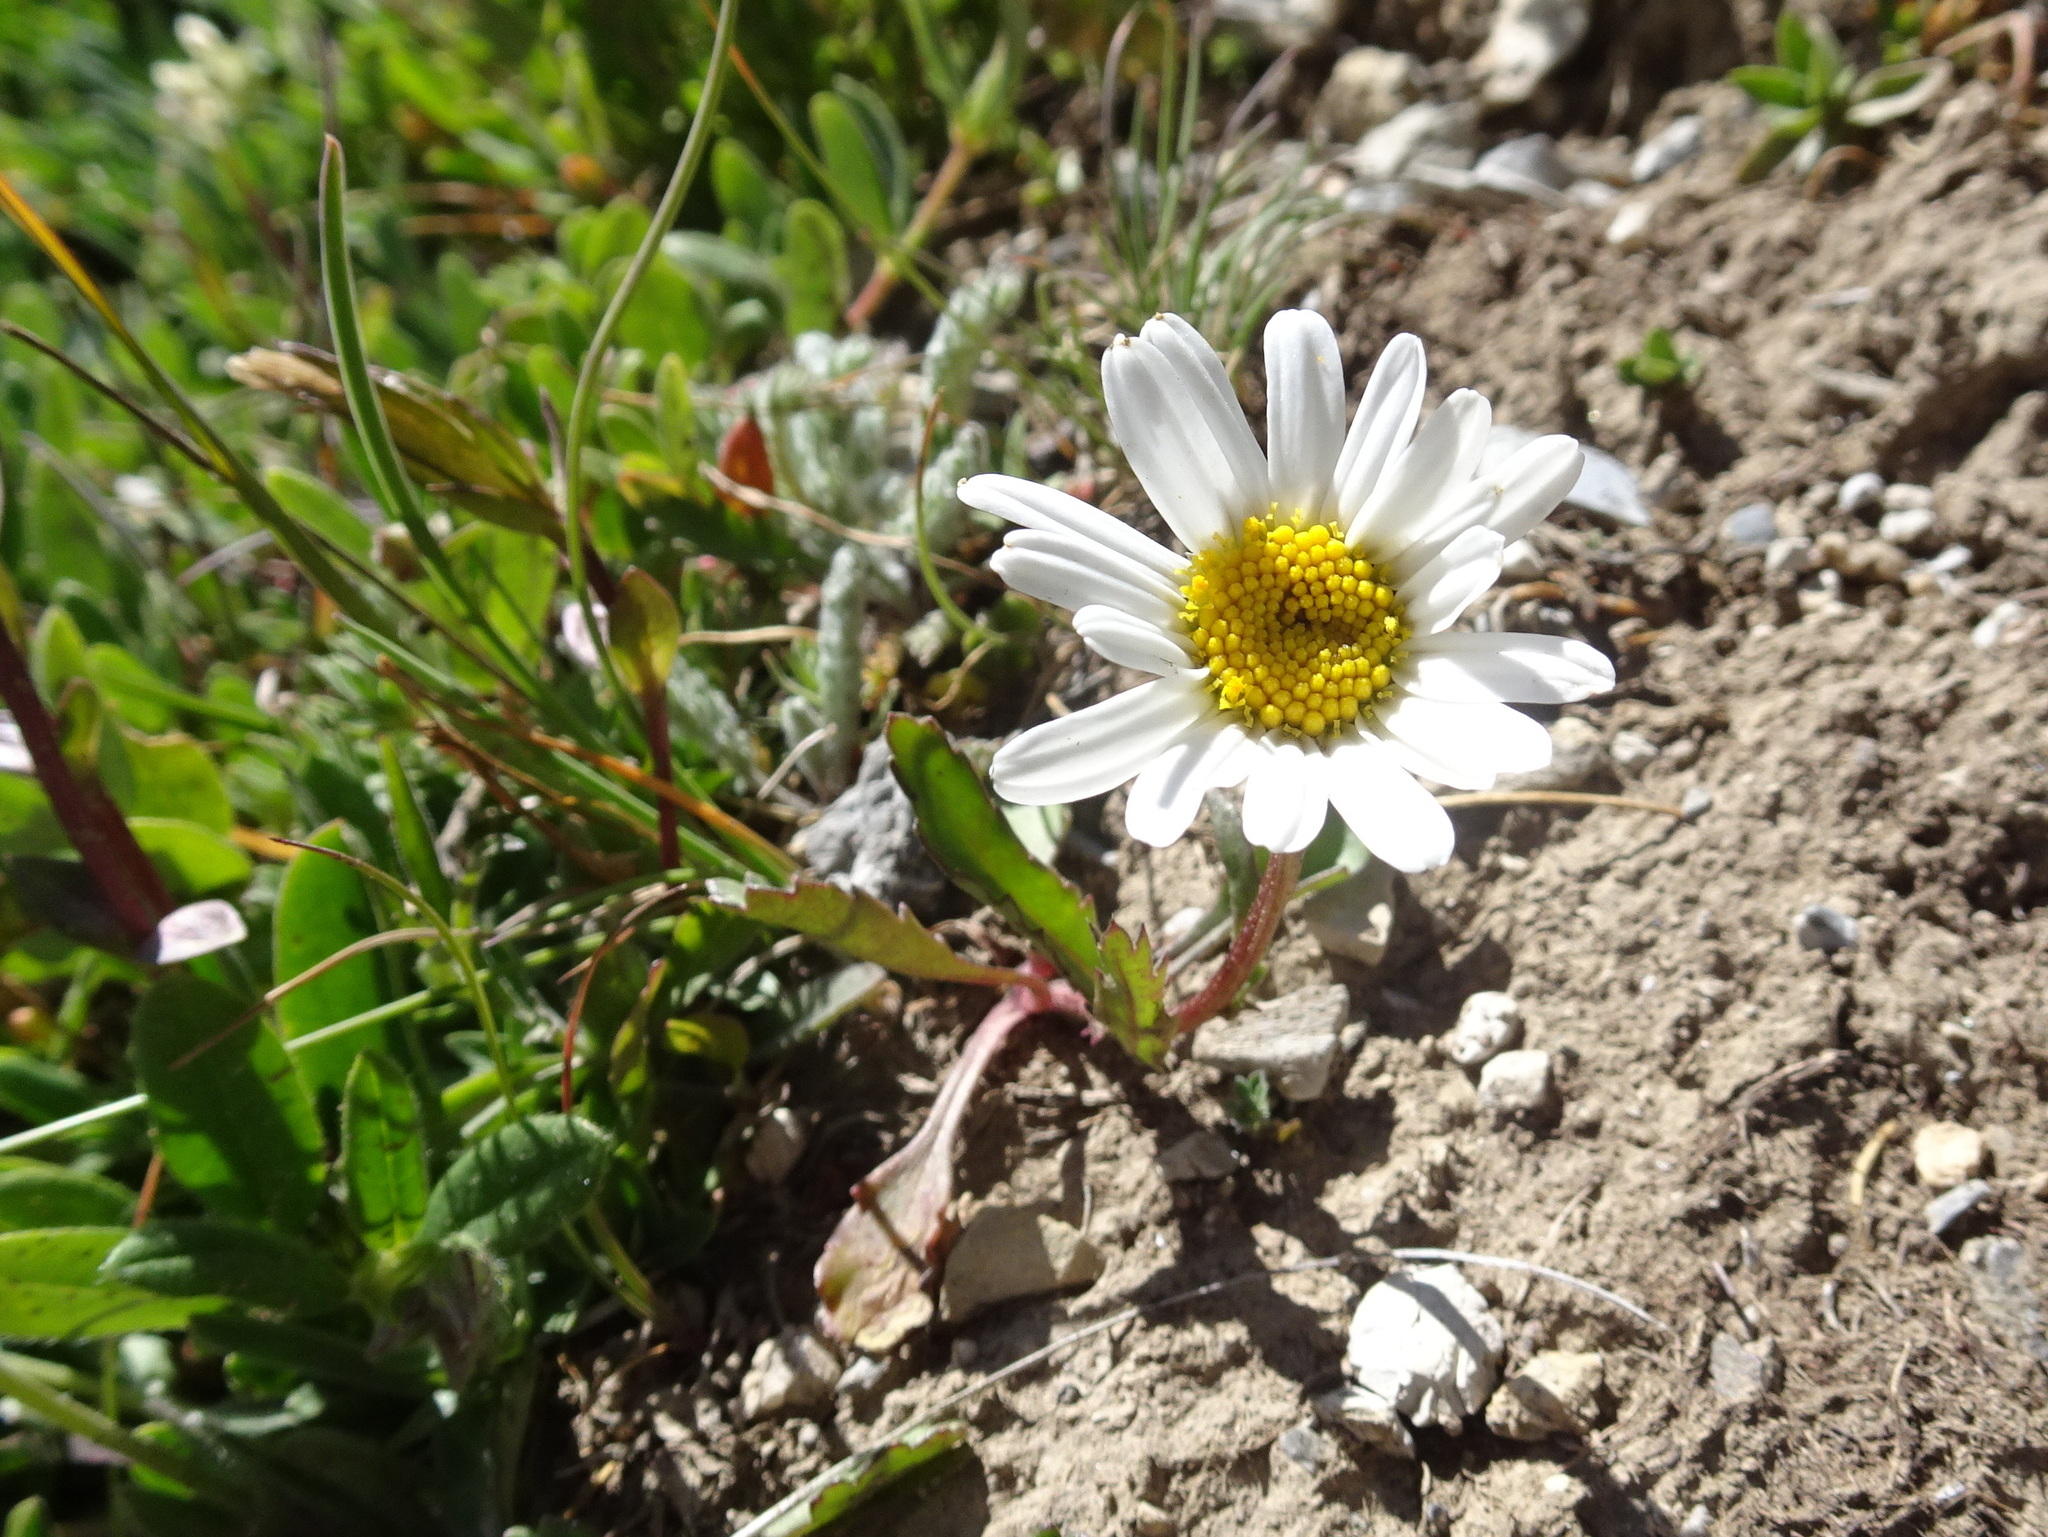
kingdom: Plantae
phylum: Tracheophyta
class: Magnoliopsida
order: Asterales
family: Asteraceae
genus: Leucanthemopsis
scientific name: Leucanthemopsis alpina
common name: Alpine moon daisy
